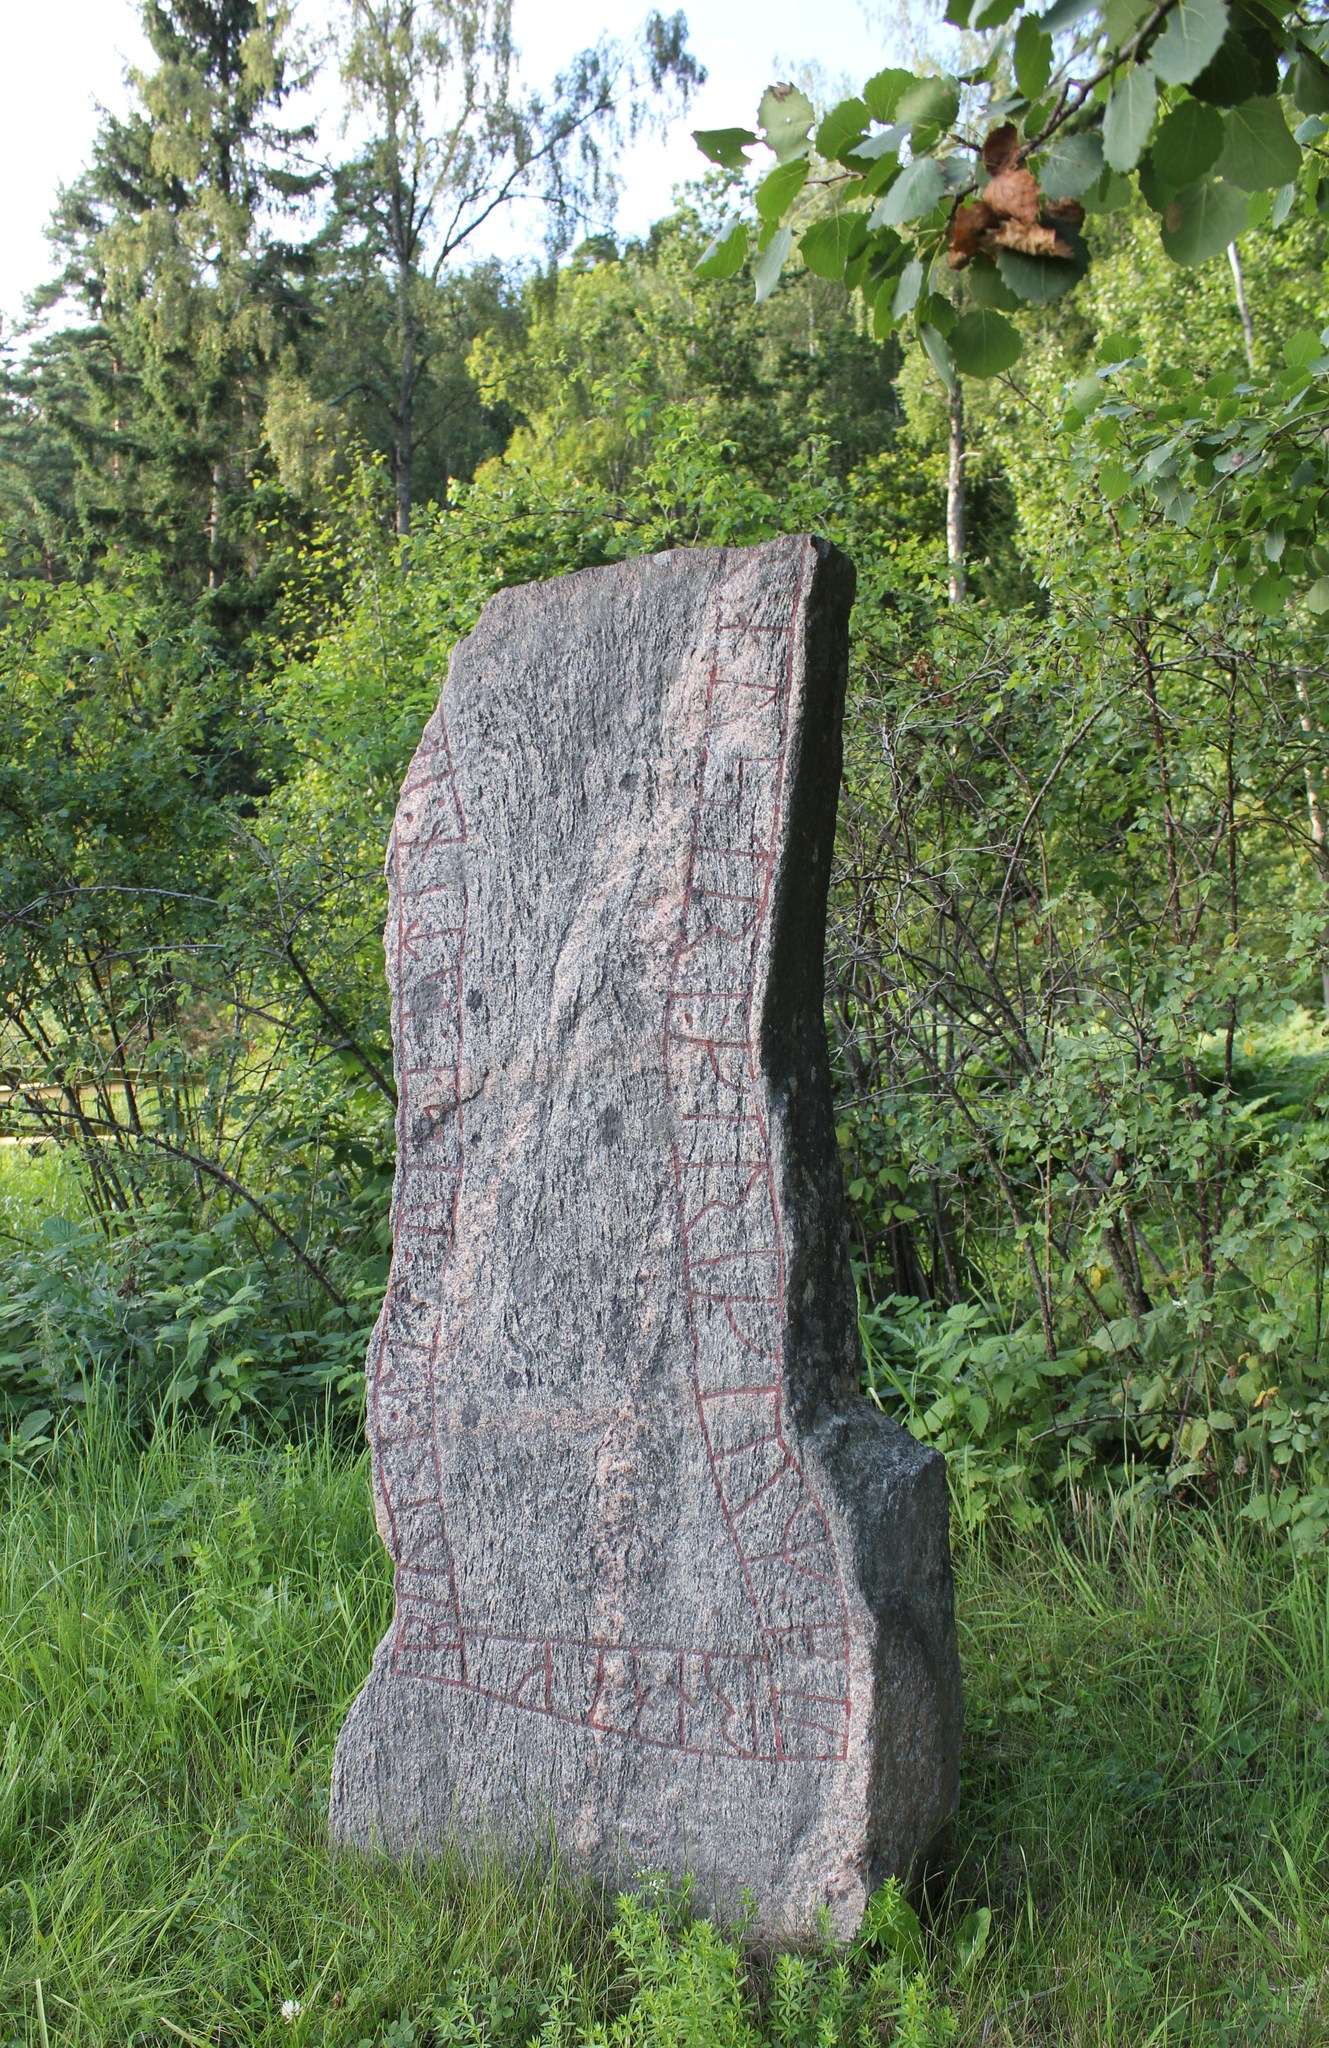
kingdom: Plantae
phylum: Tracheophyta
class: Magnoliopsida
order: Gentianales
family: Rubiaceae
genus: Galium
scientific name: Galium album
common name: White bedstraw
